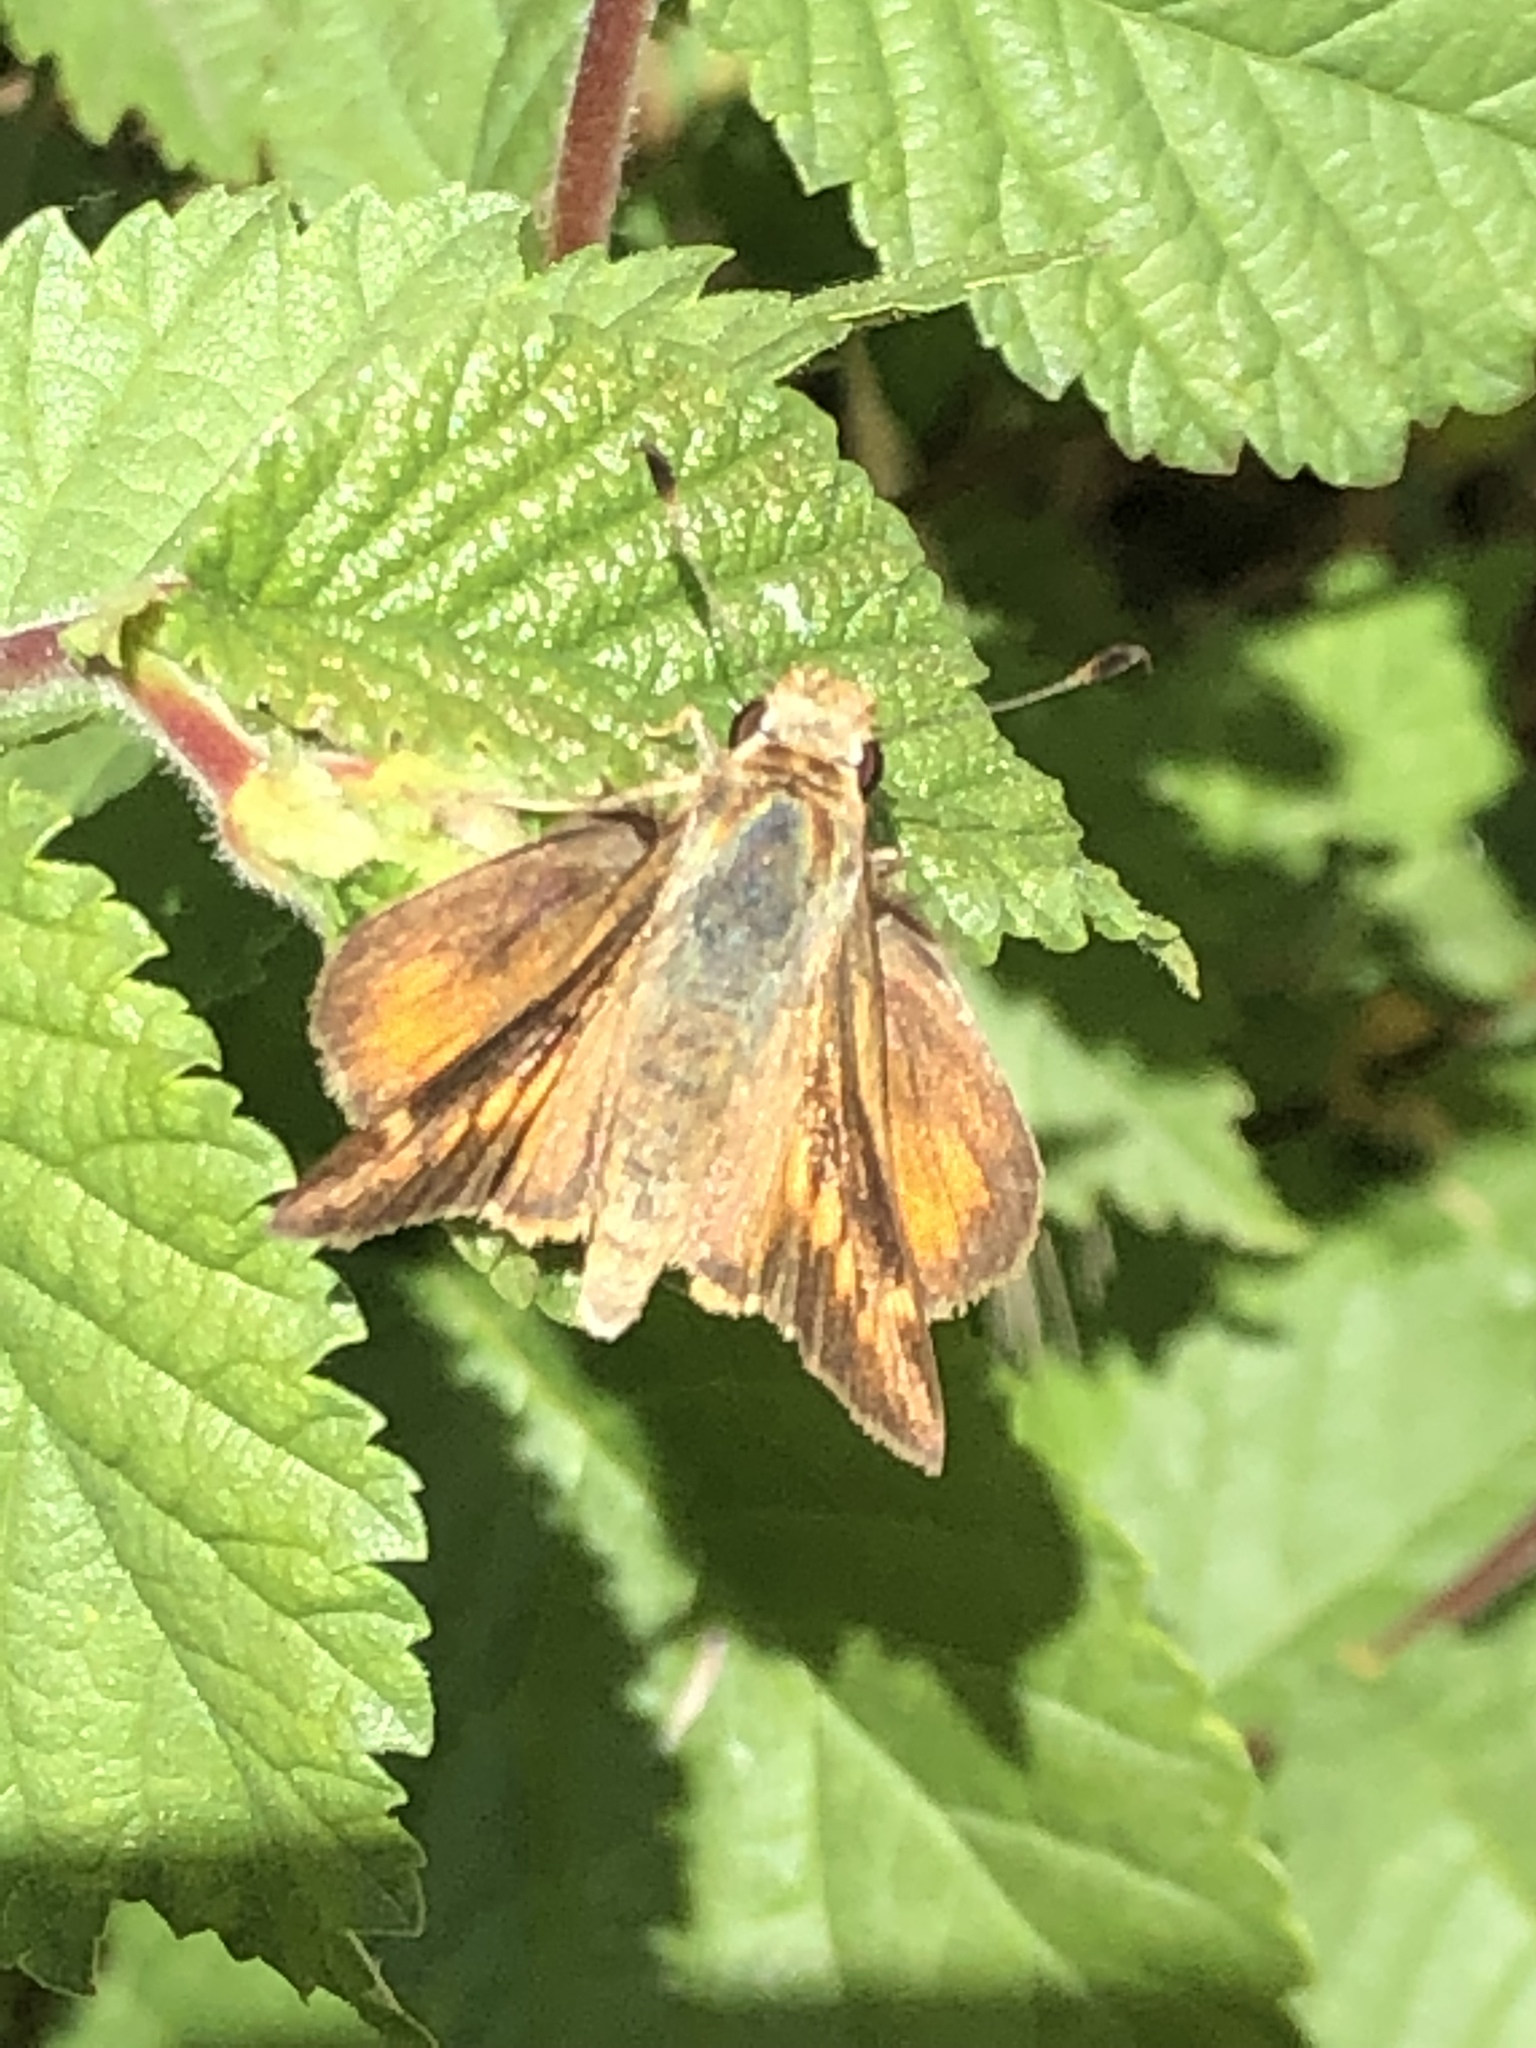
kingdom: Animalia
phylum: Arthropoda
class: Insecta
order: Lepidoptera
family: Hesperiidae
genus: Lon
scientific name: Lon melane
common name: Umber skipper
